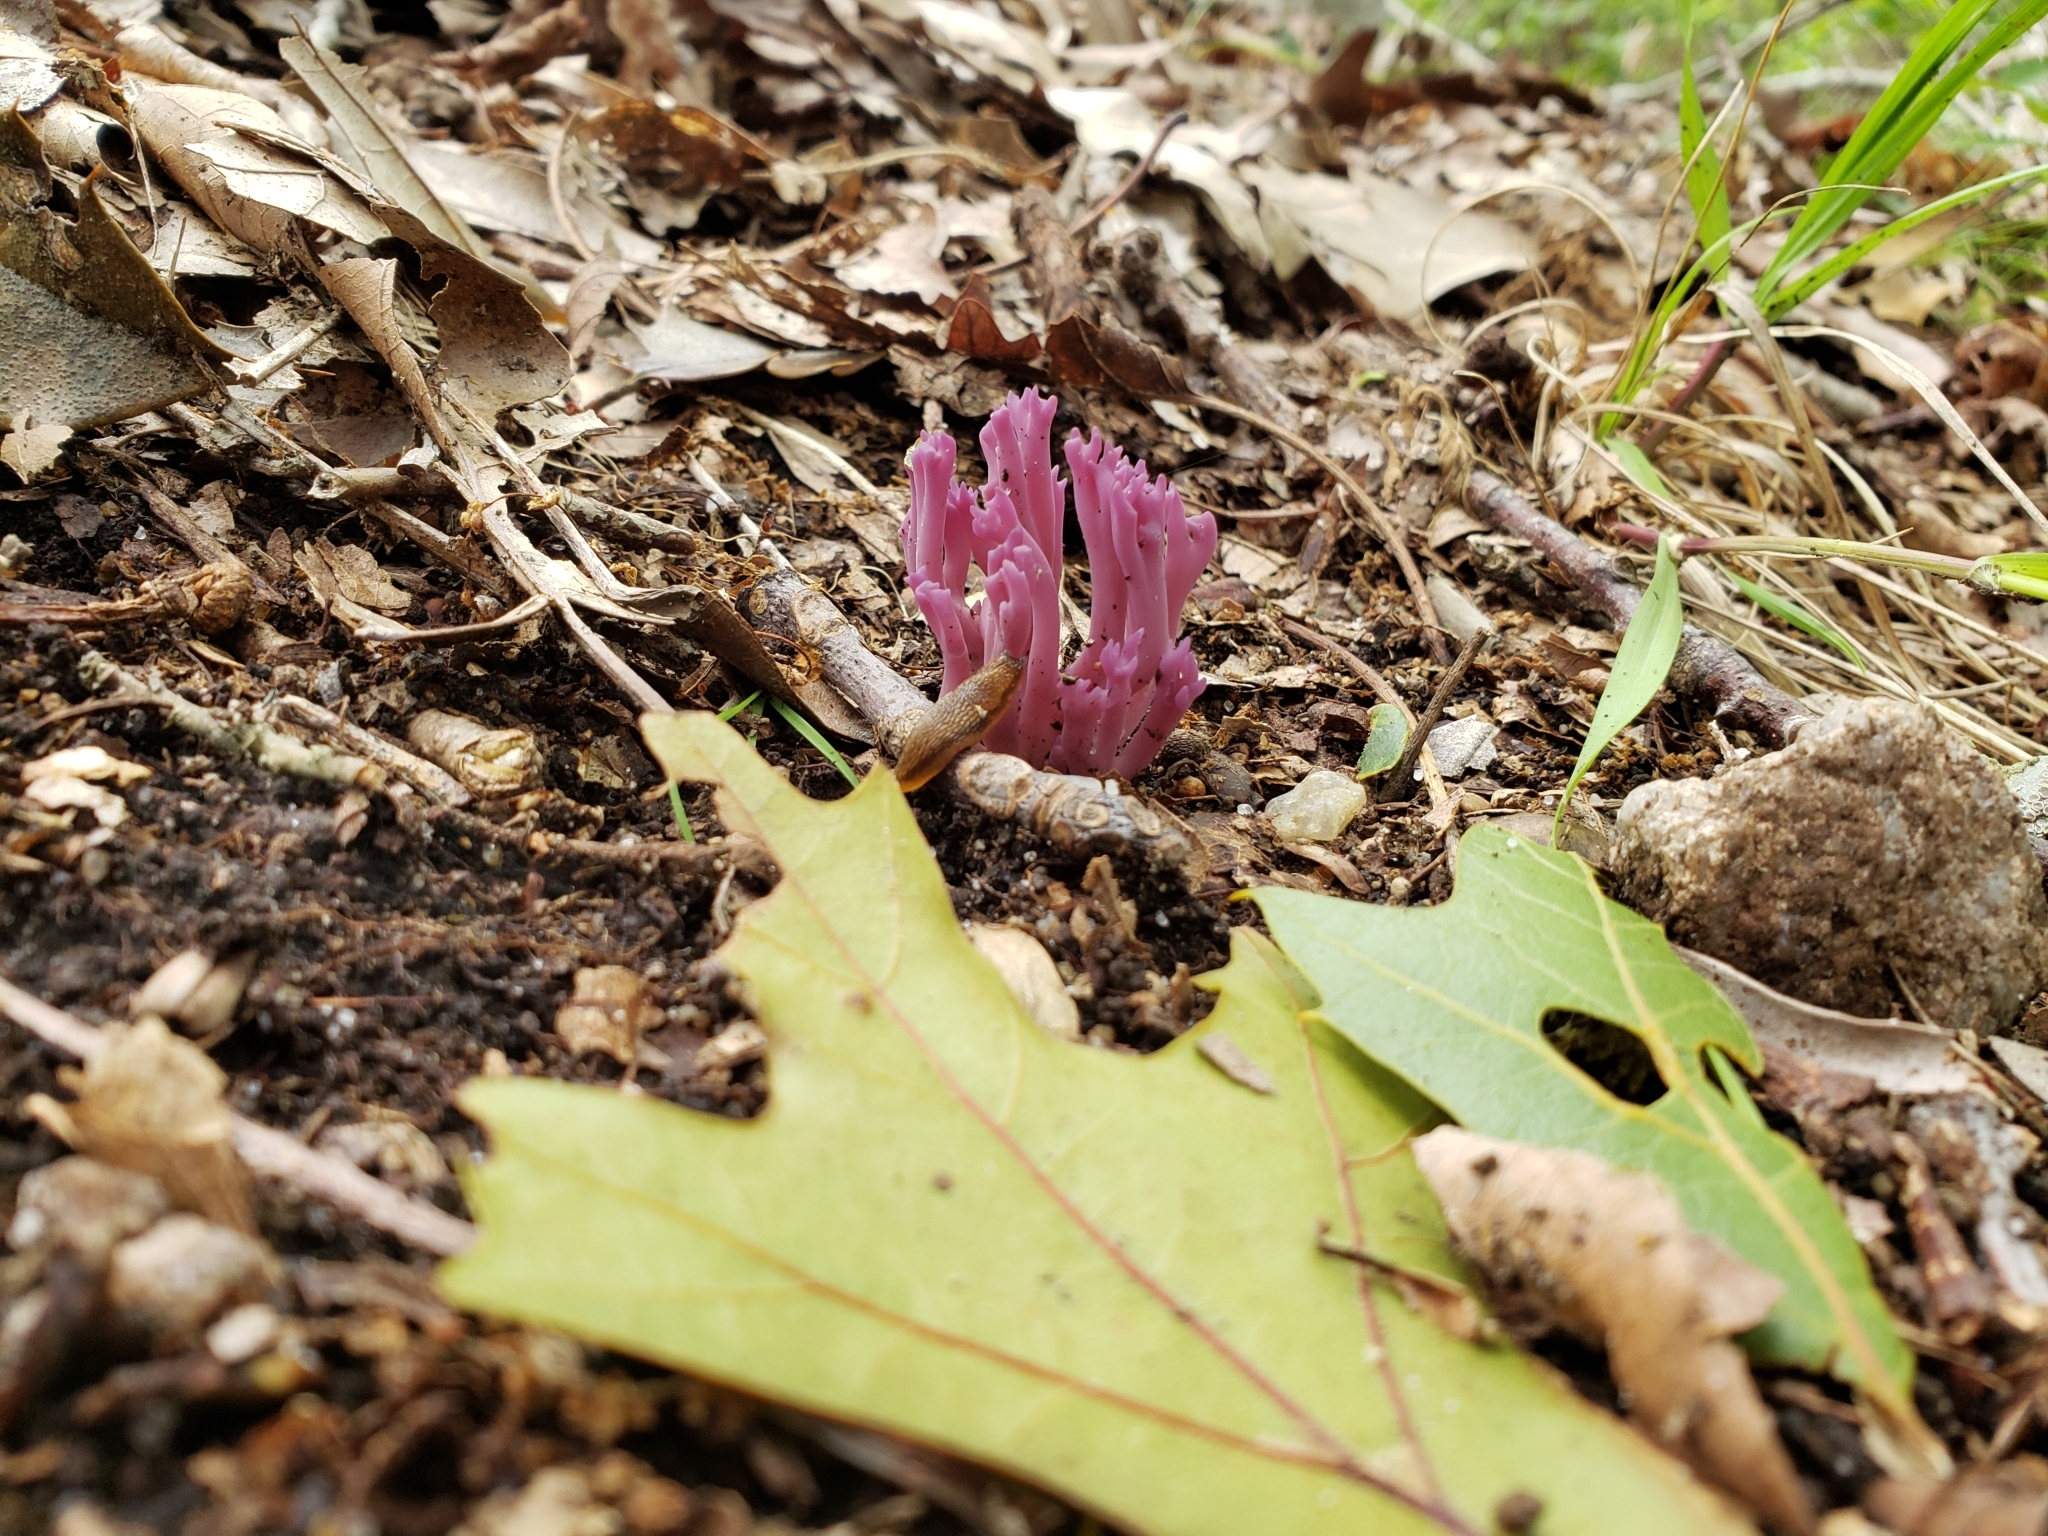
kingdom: Fungi
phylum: Basidiomycota
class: Agaricomycetes
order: Agaricales
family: Clavariaceae
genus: Clavaria
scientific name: Clavaria zollingeri
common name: Violet coral
